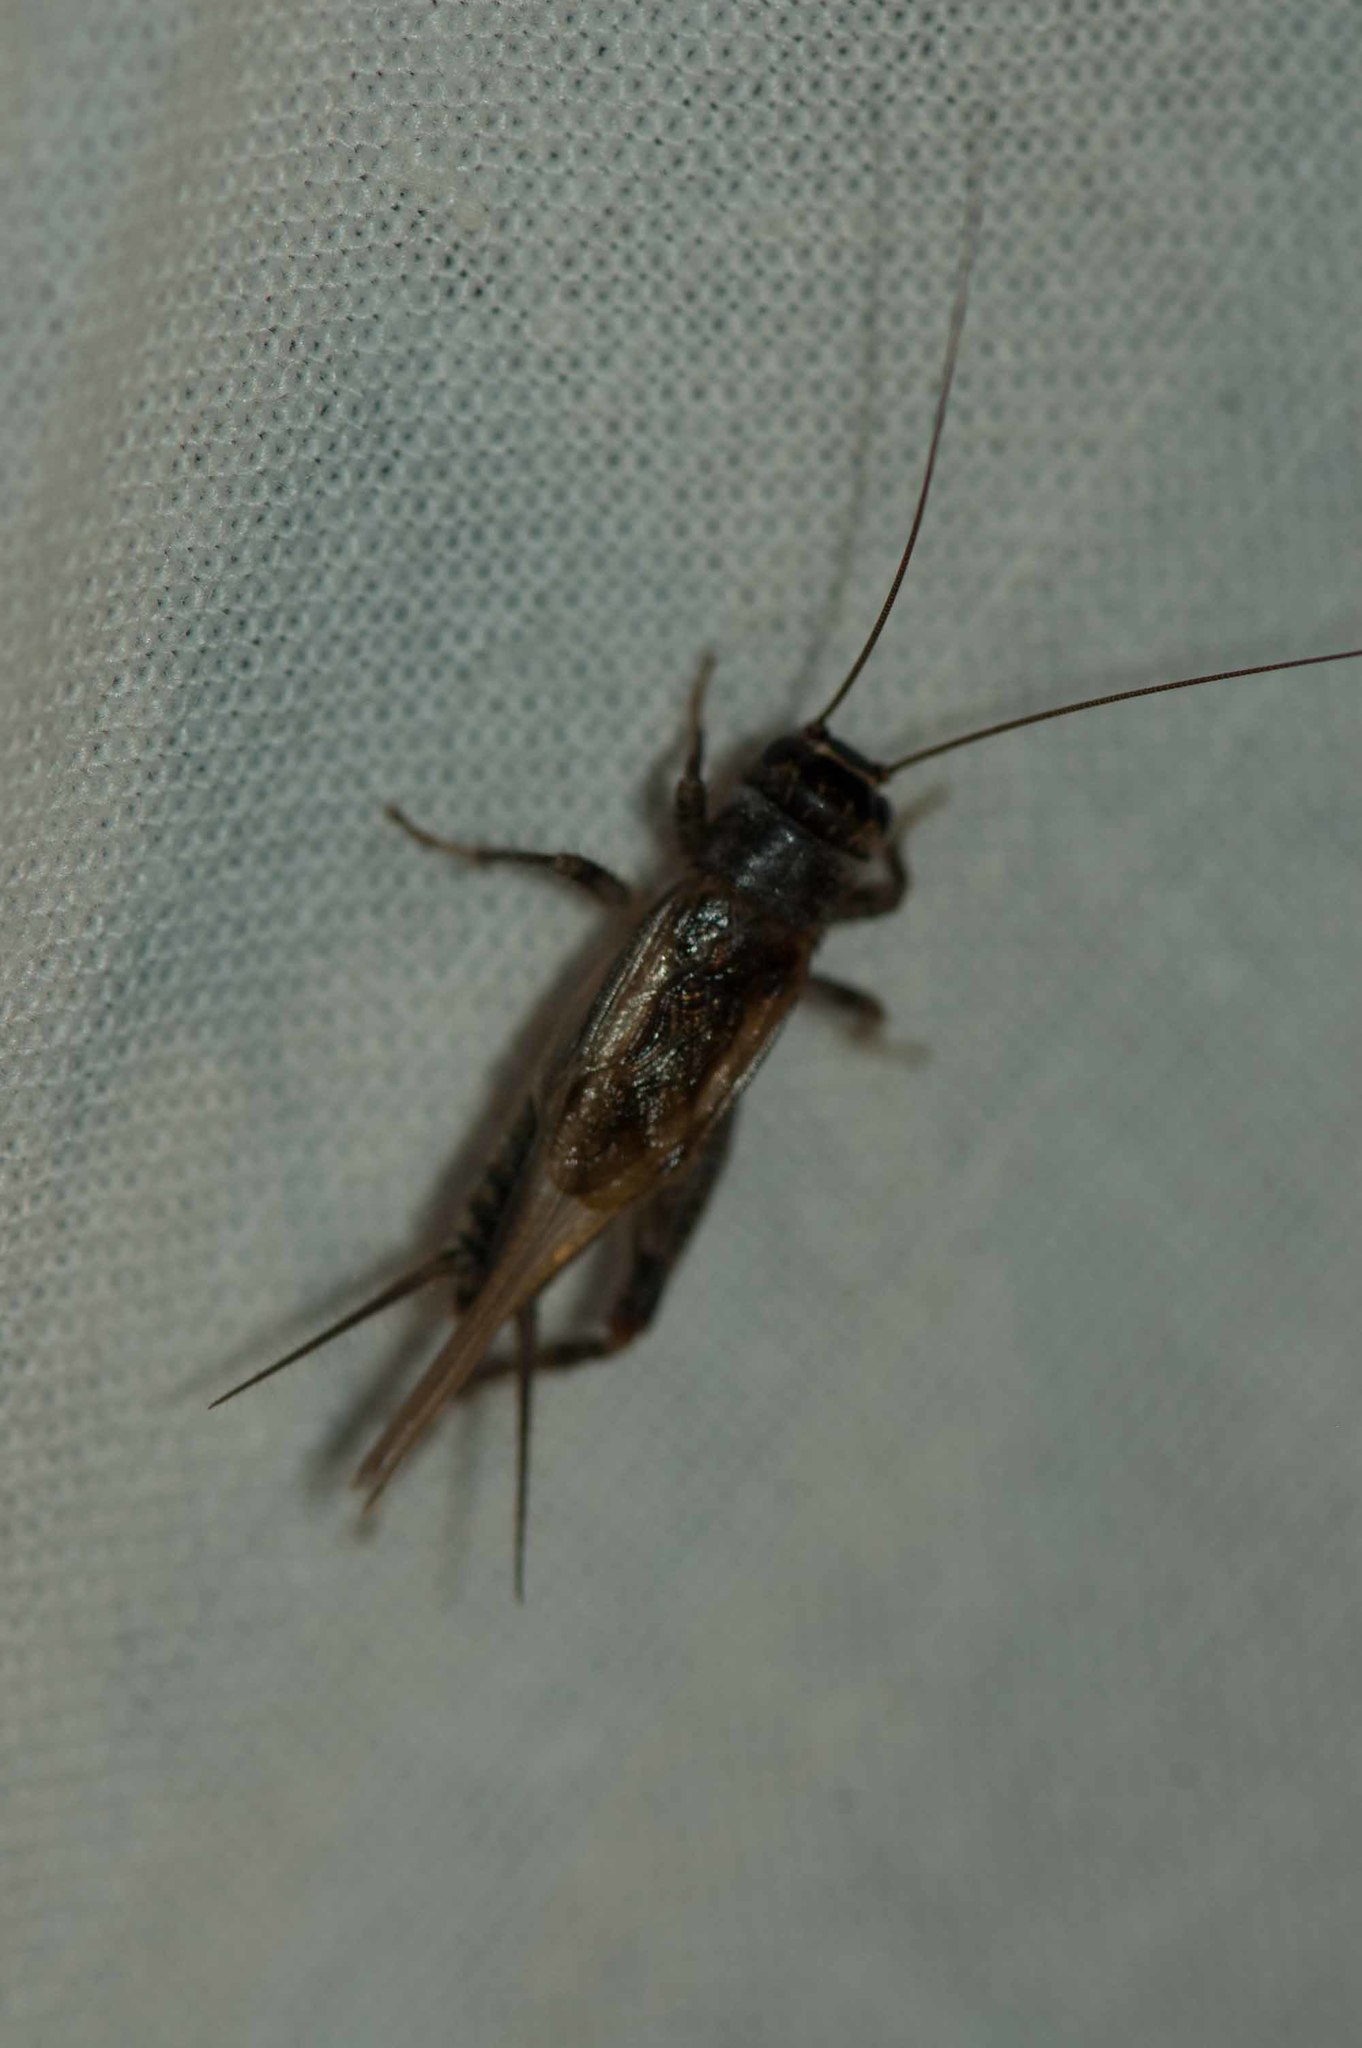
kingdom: Animalia
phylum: Arthropoda
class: Insecta
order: Orthoptera
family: Gryllidae
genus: Eumodicogryllus
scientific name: Eumodicogryllus bordigalensis
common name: Bordeaux cricket
